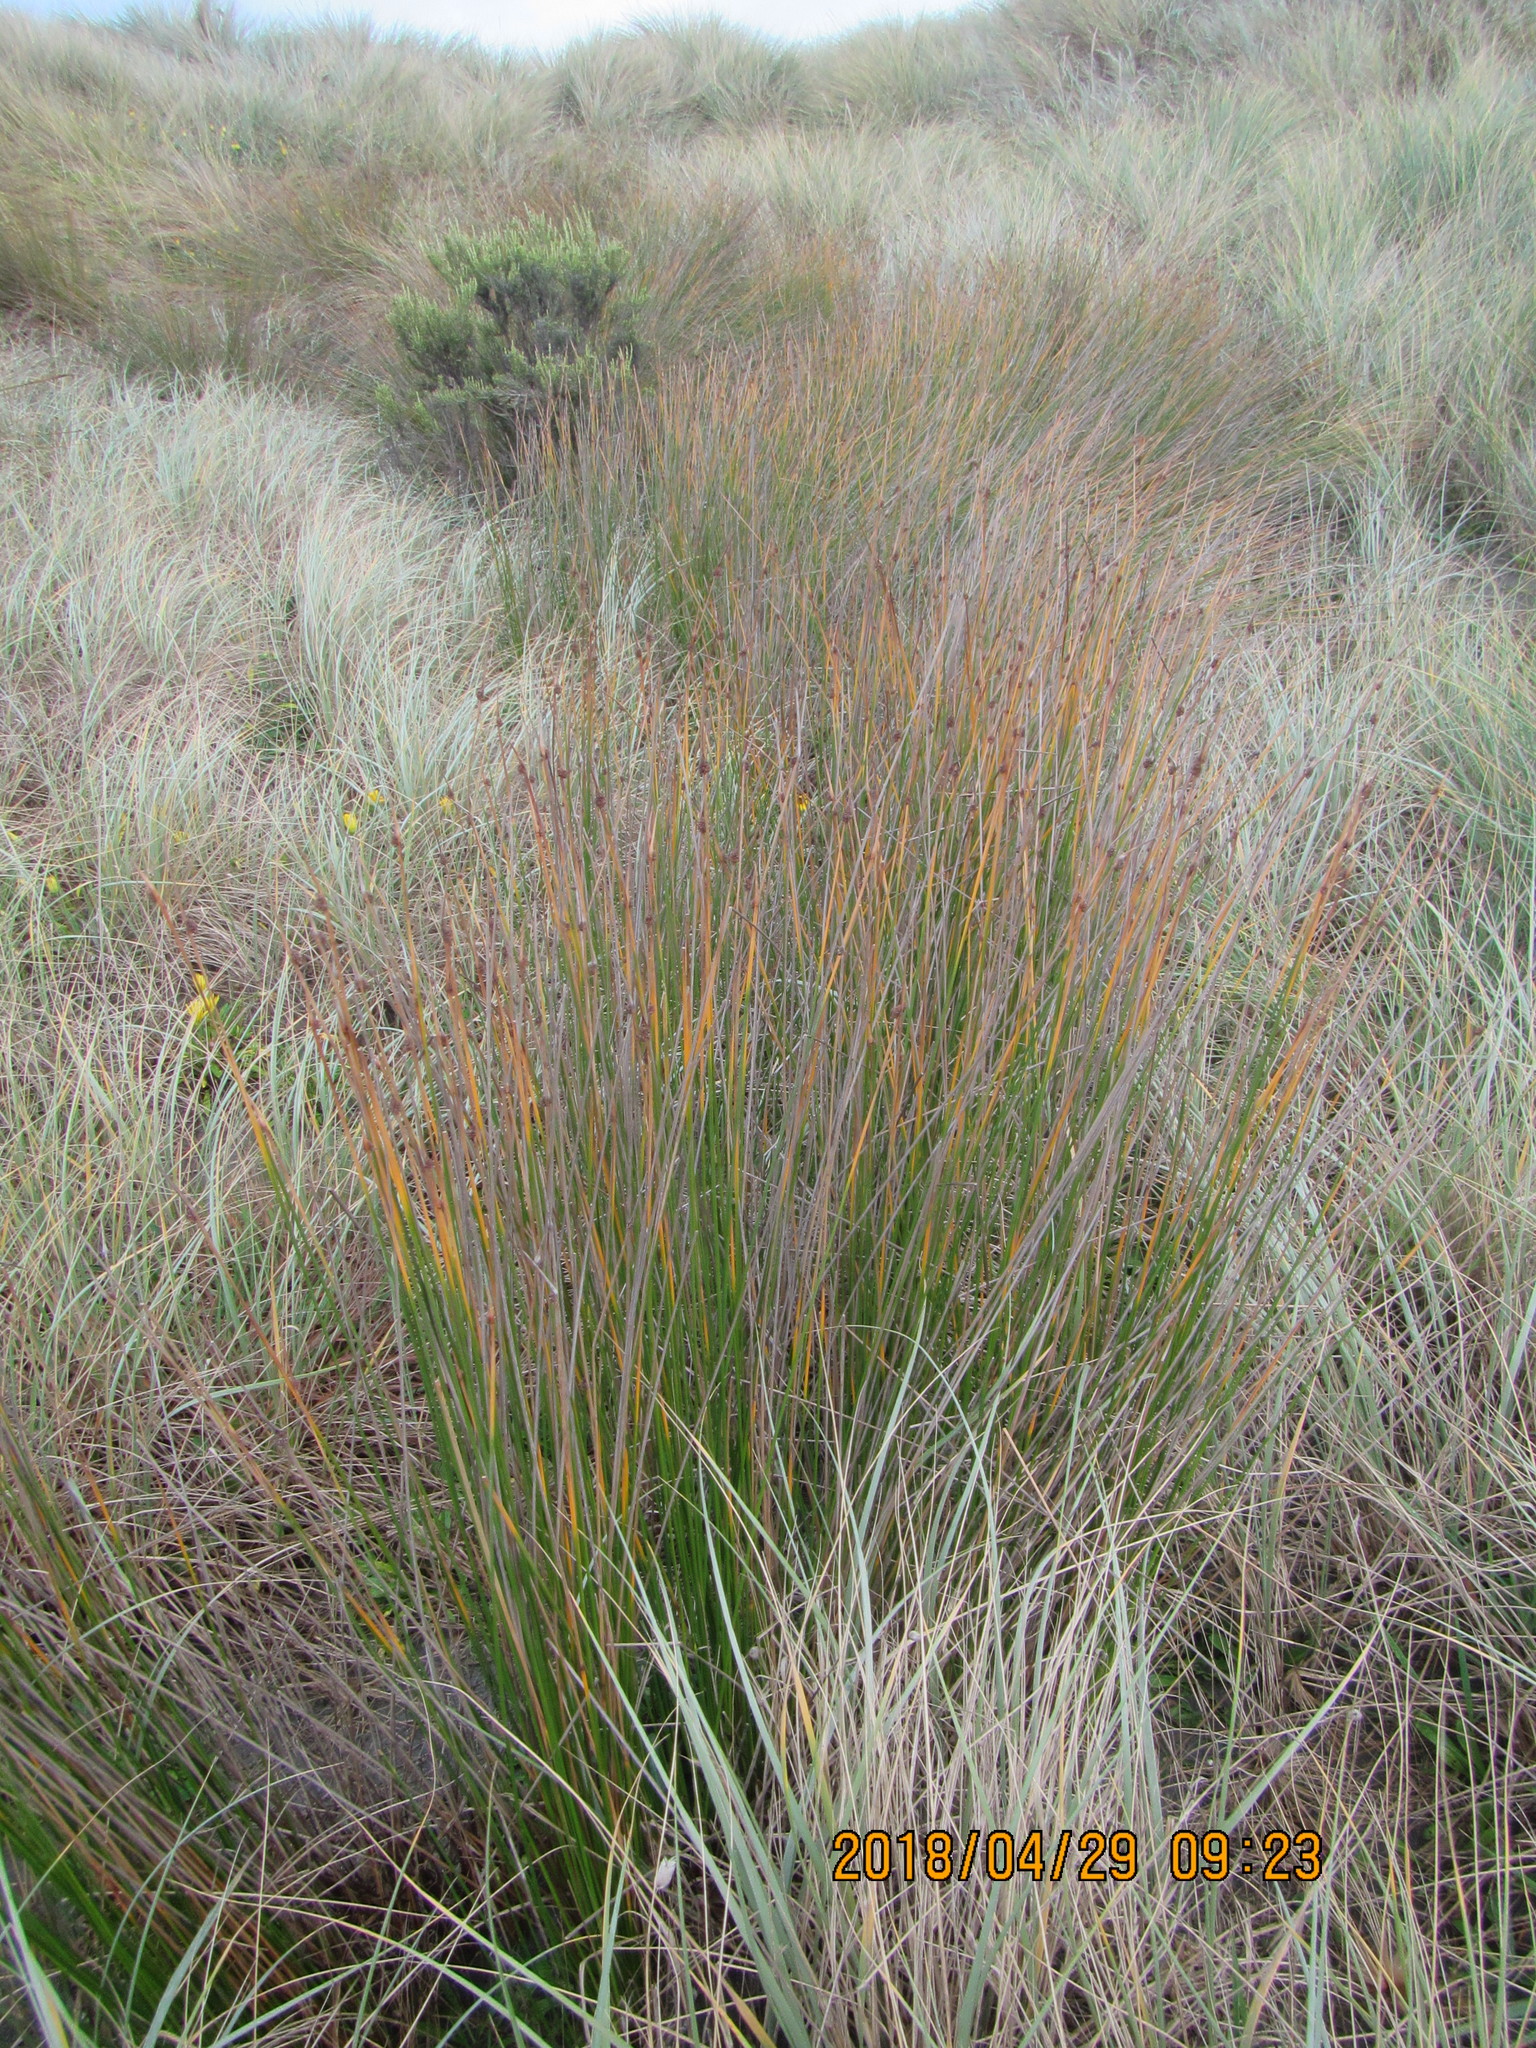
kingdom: Plantae
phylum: Tracheophyta
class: Liliopsida
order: Poales
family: Cyperaceae
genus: Ficinia
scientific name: Ficinia nodosa
